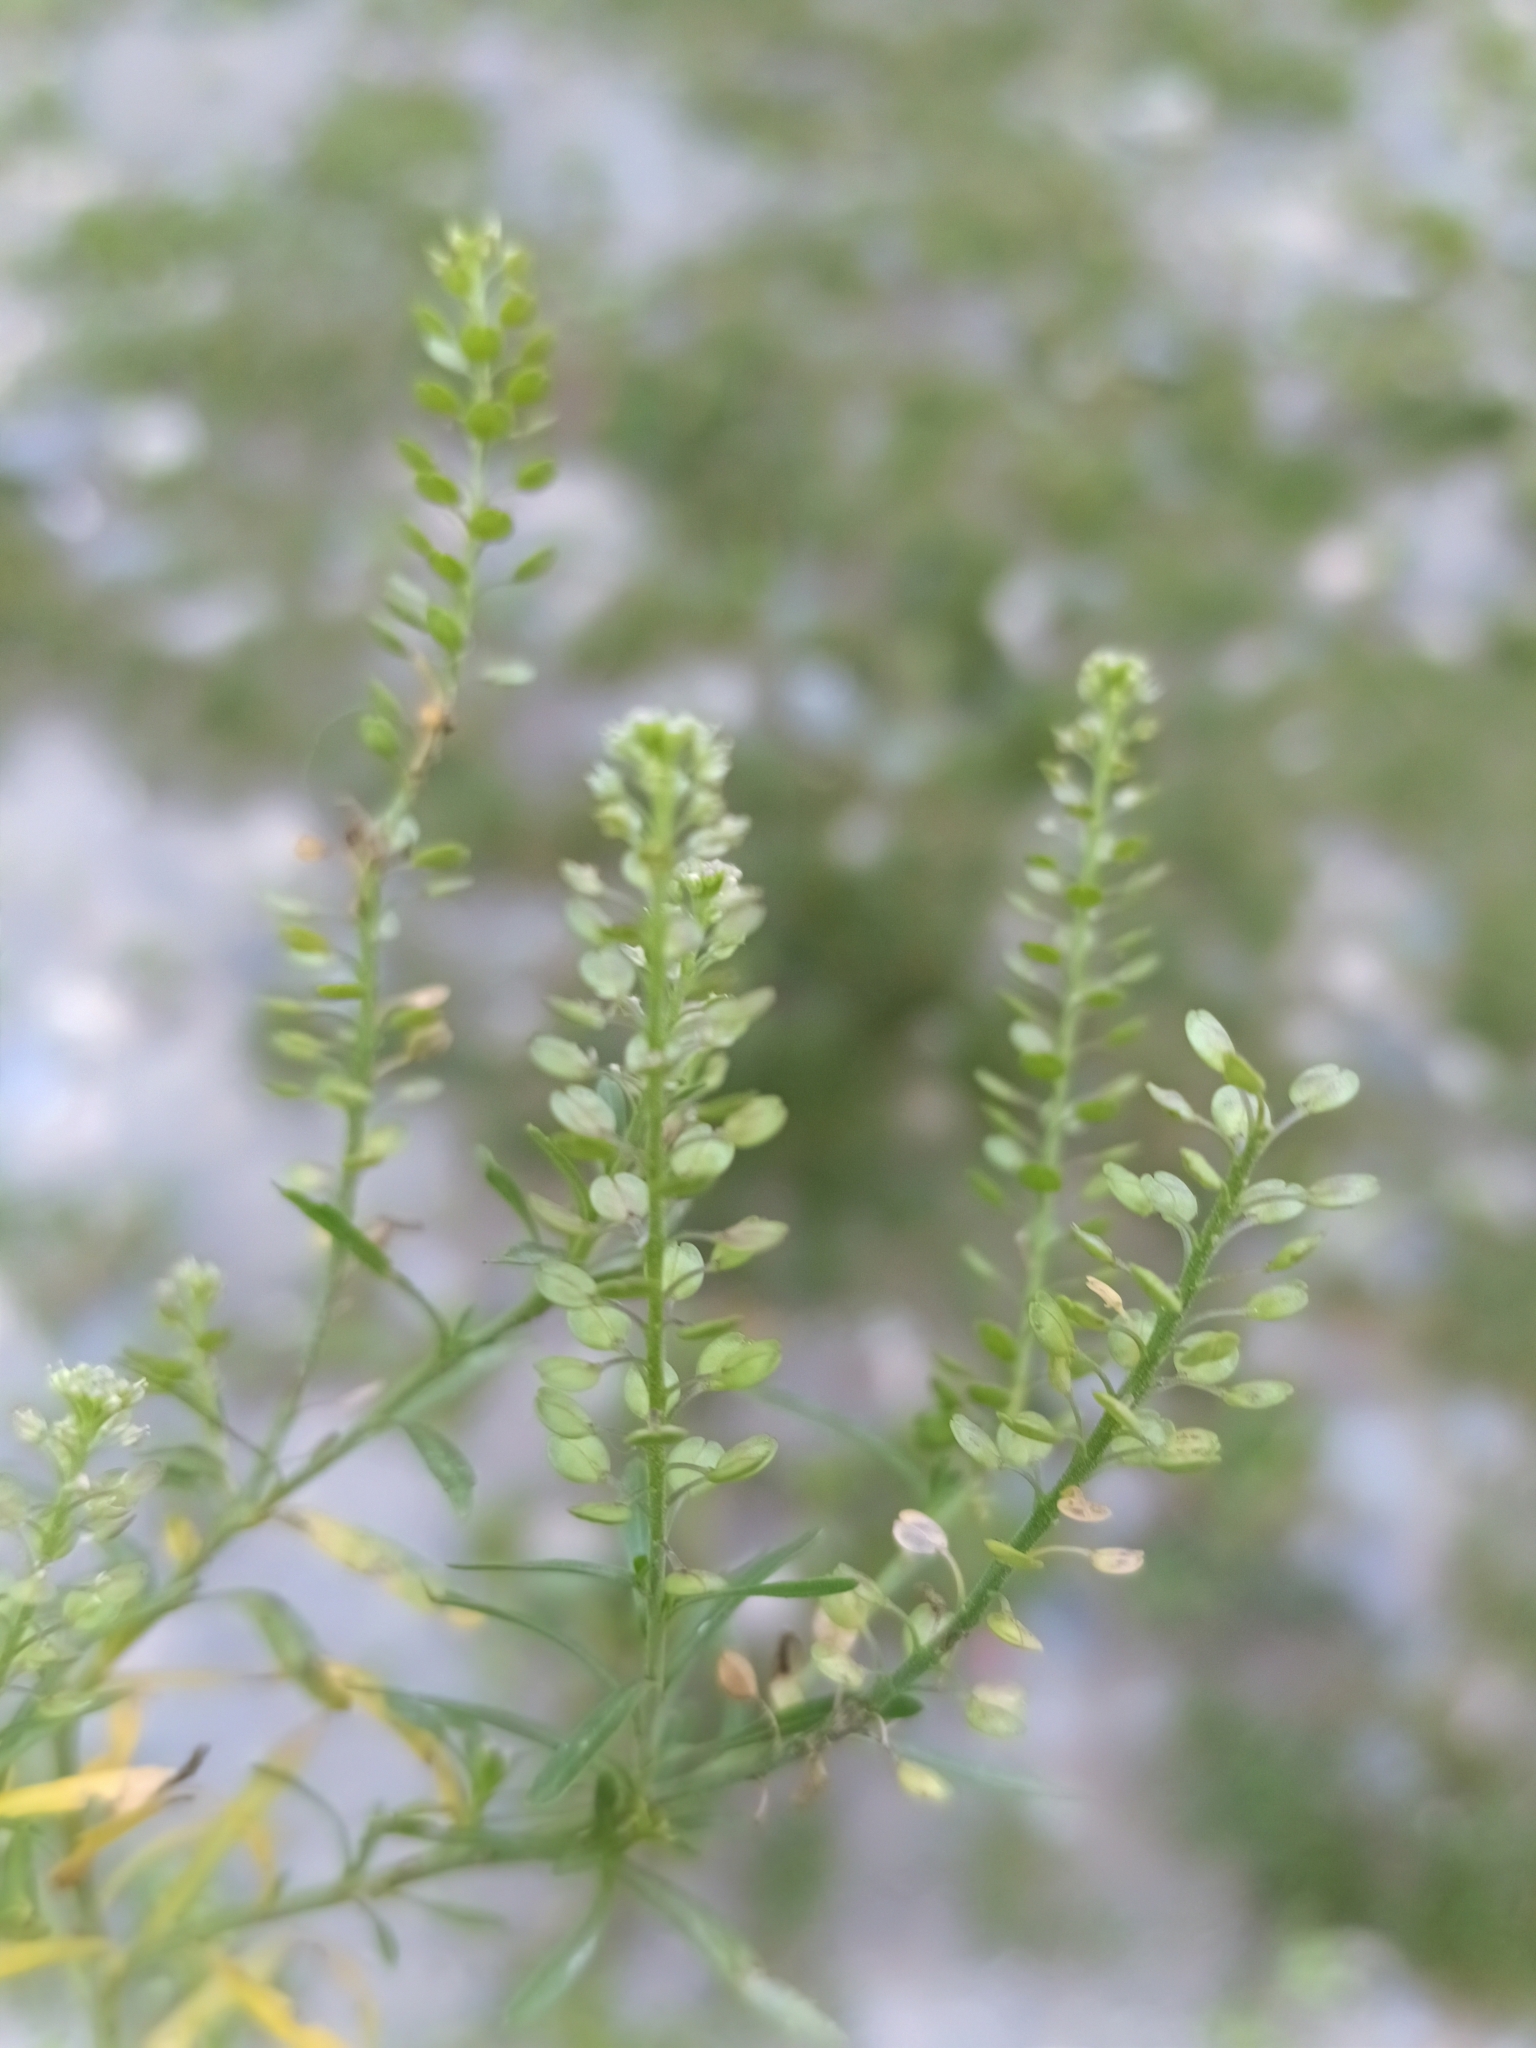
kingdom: Plantae
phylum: Tracheophyta
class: Magnoliopsida
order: Brassicales
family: Brassicaceae
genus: Lepidium
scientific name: Lepidium densiflorum
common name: Miner's pepperwort
